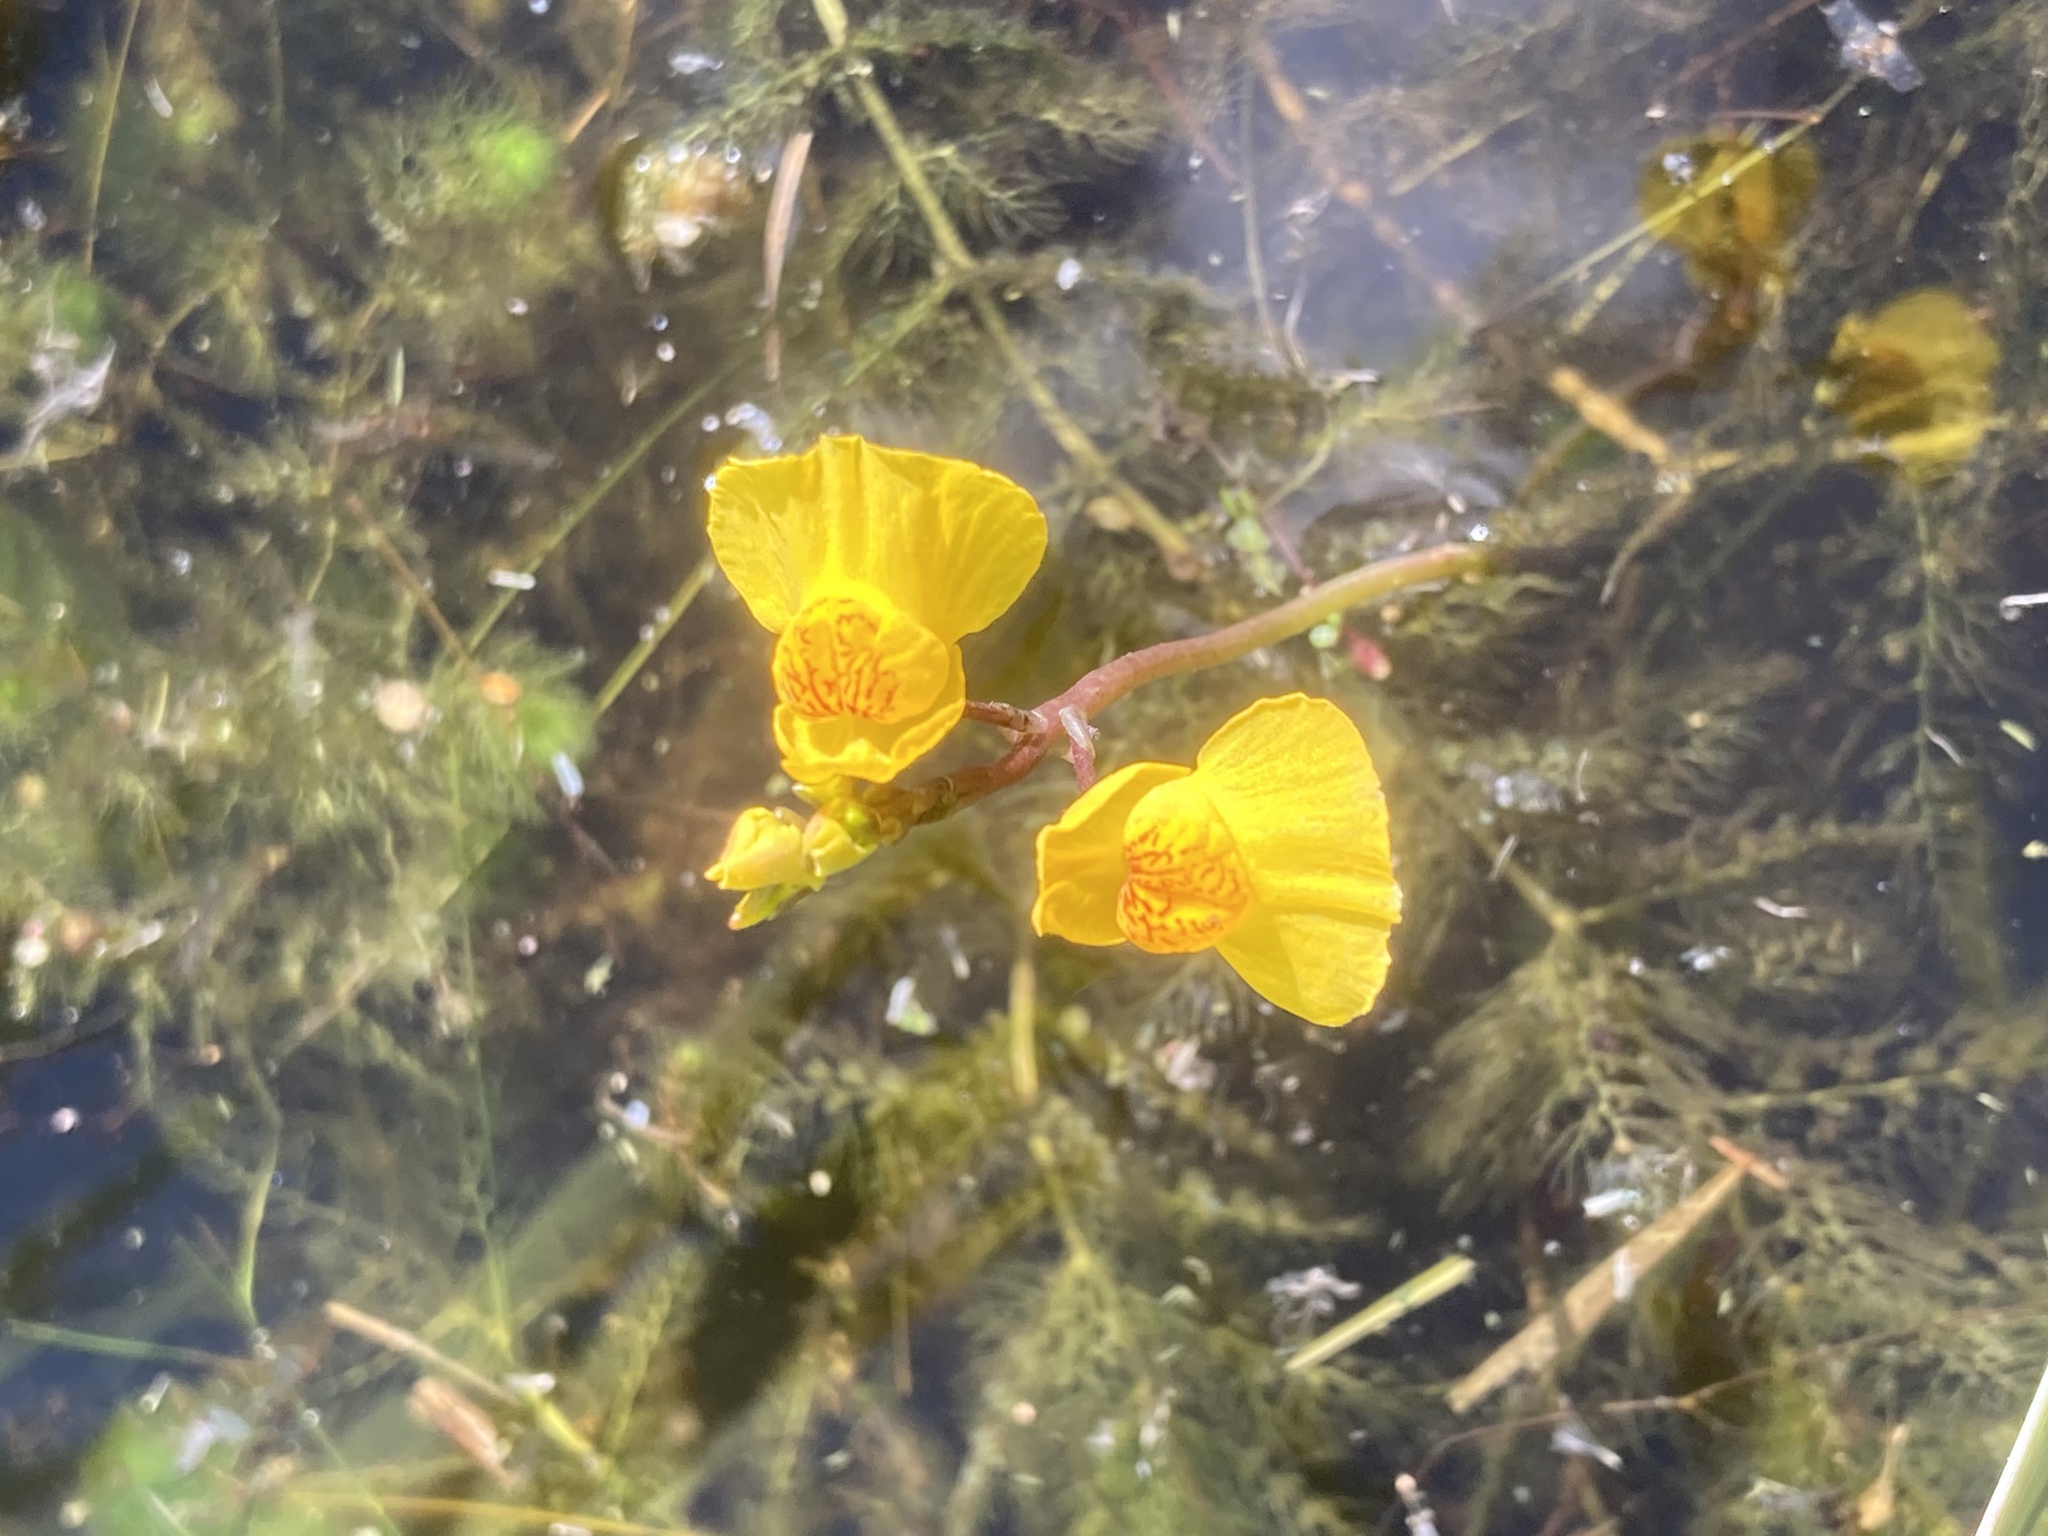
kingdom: Plantae
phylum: Tracheophyta
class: Magnoliopsida
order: Lamiales
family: Lentibulariaceae
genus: Utricularia
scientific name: Utricularia australis
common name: Bladderwort
